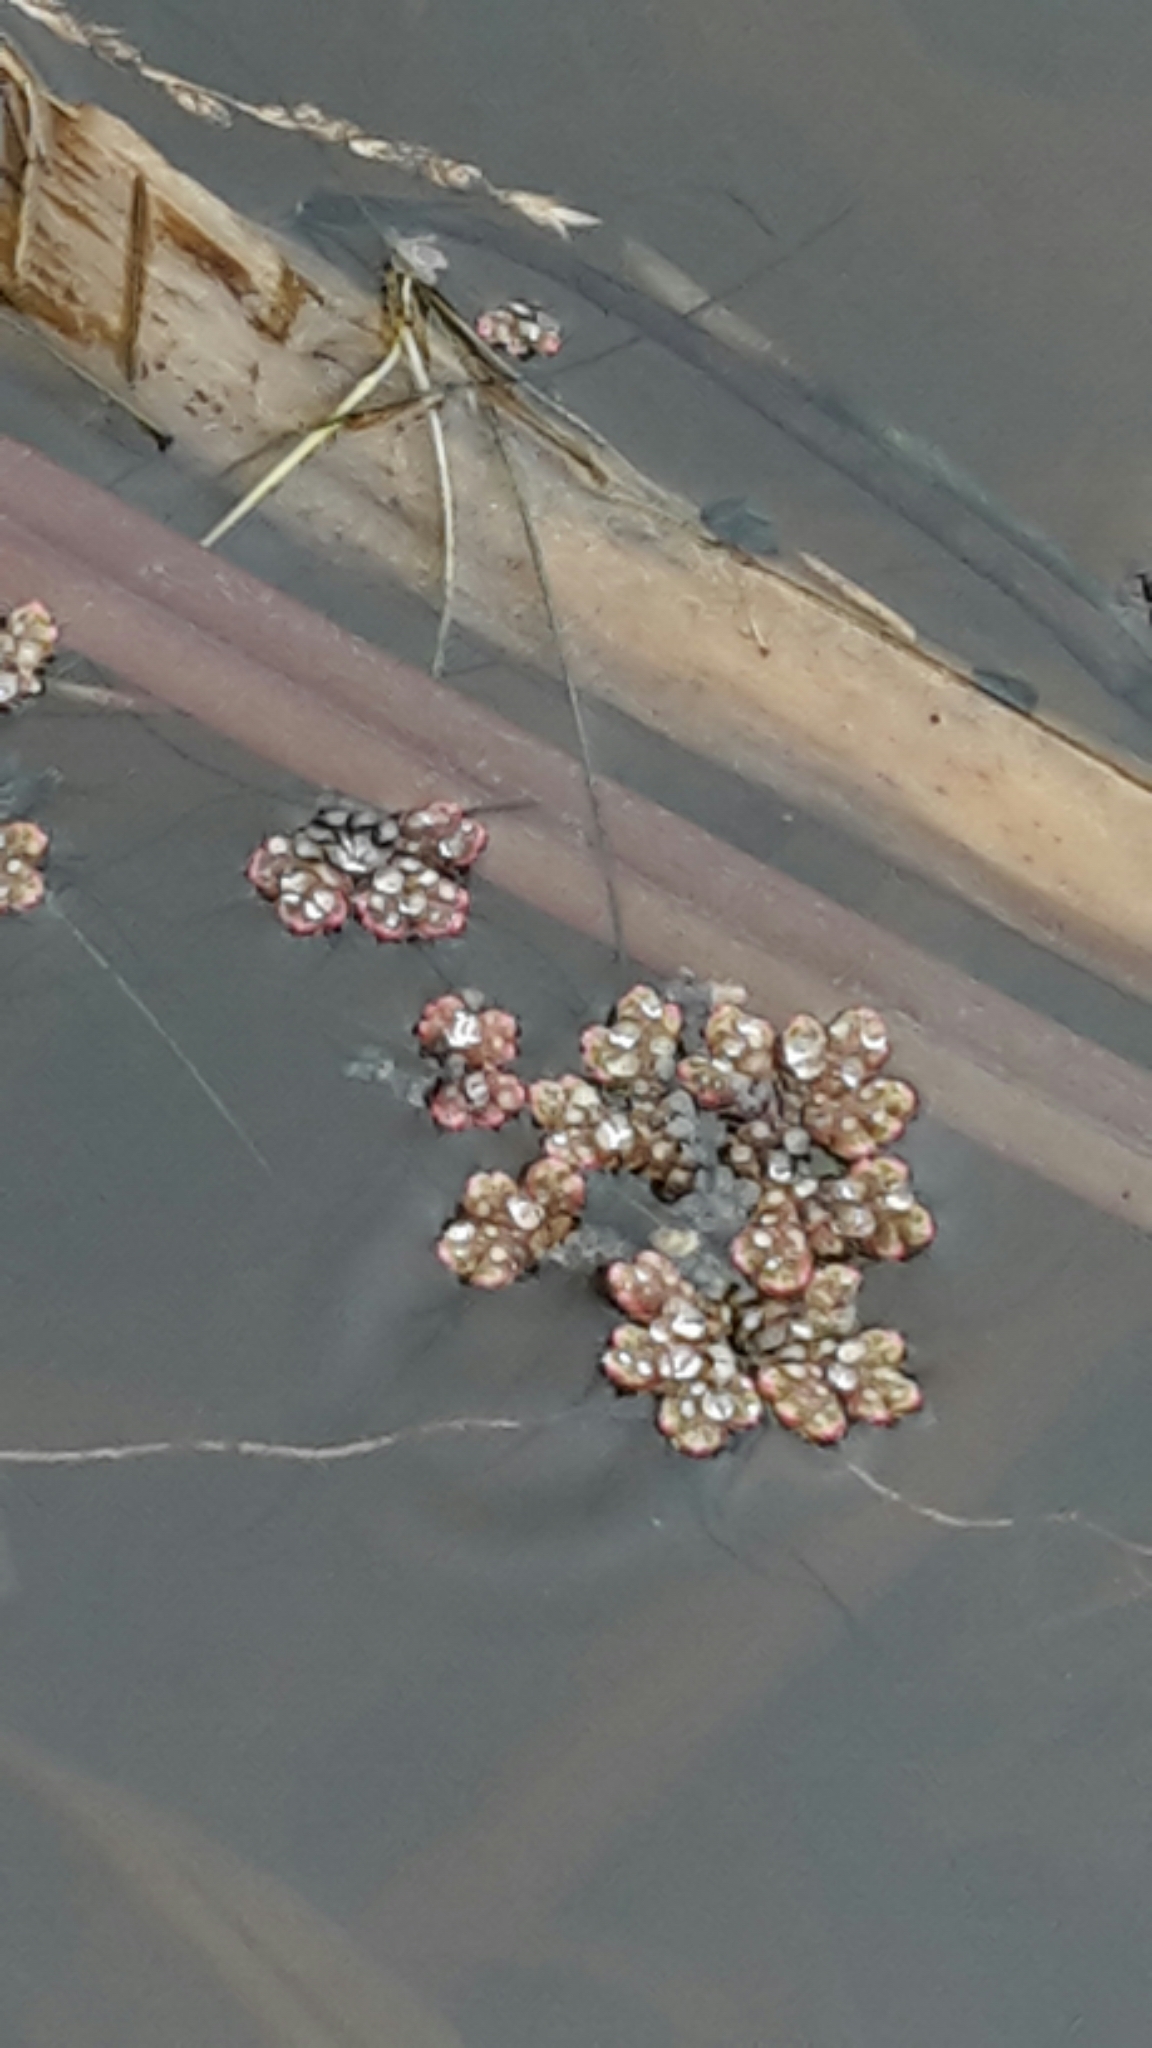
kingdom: Plantae
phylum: Tracheophyta
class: Polypodiopsida
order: Salviniales
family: Salviniaceae
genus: Azolla
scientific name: Azolla rubra
